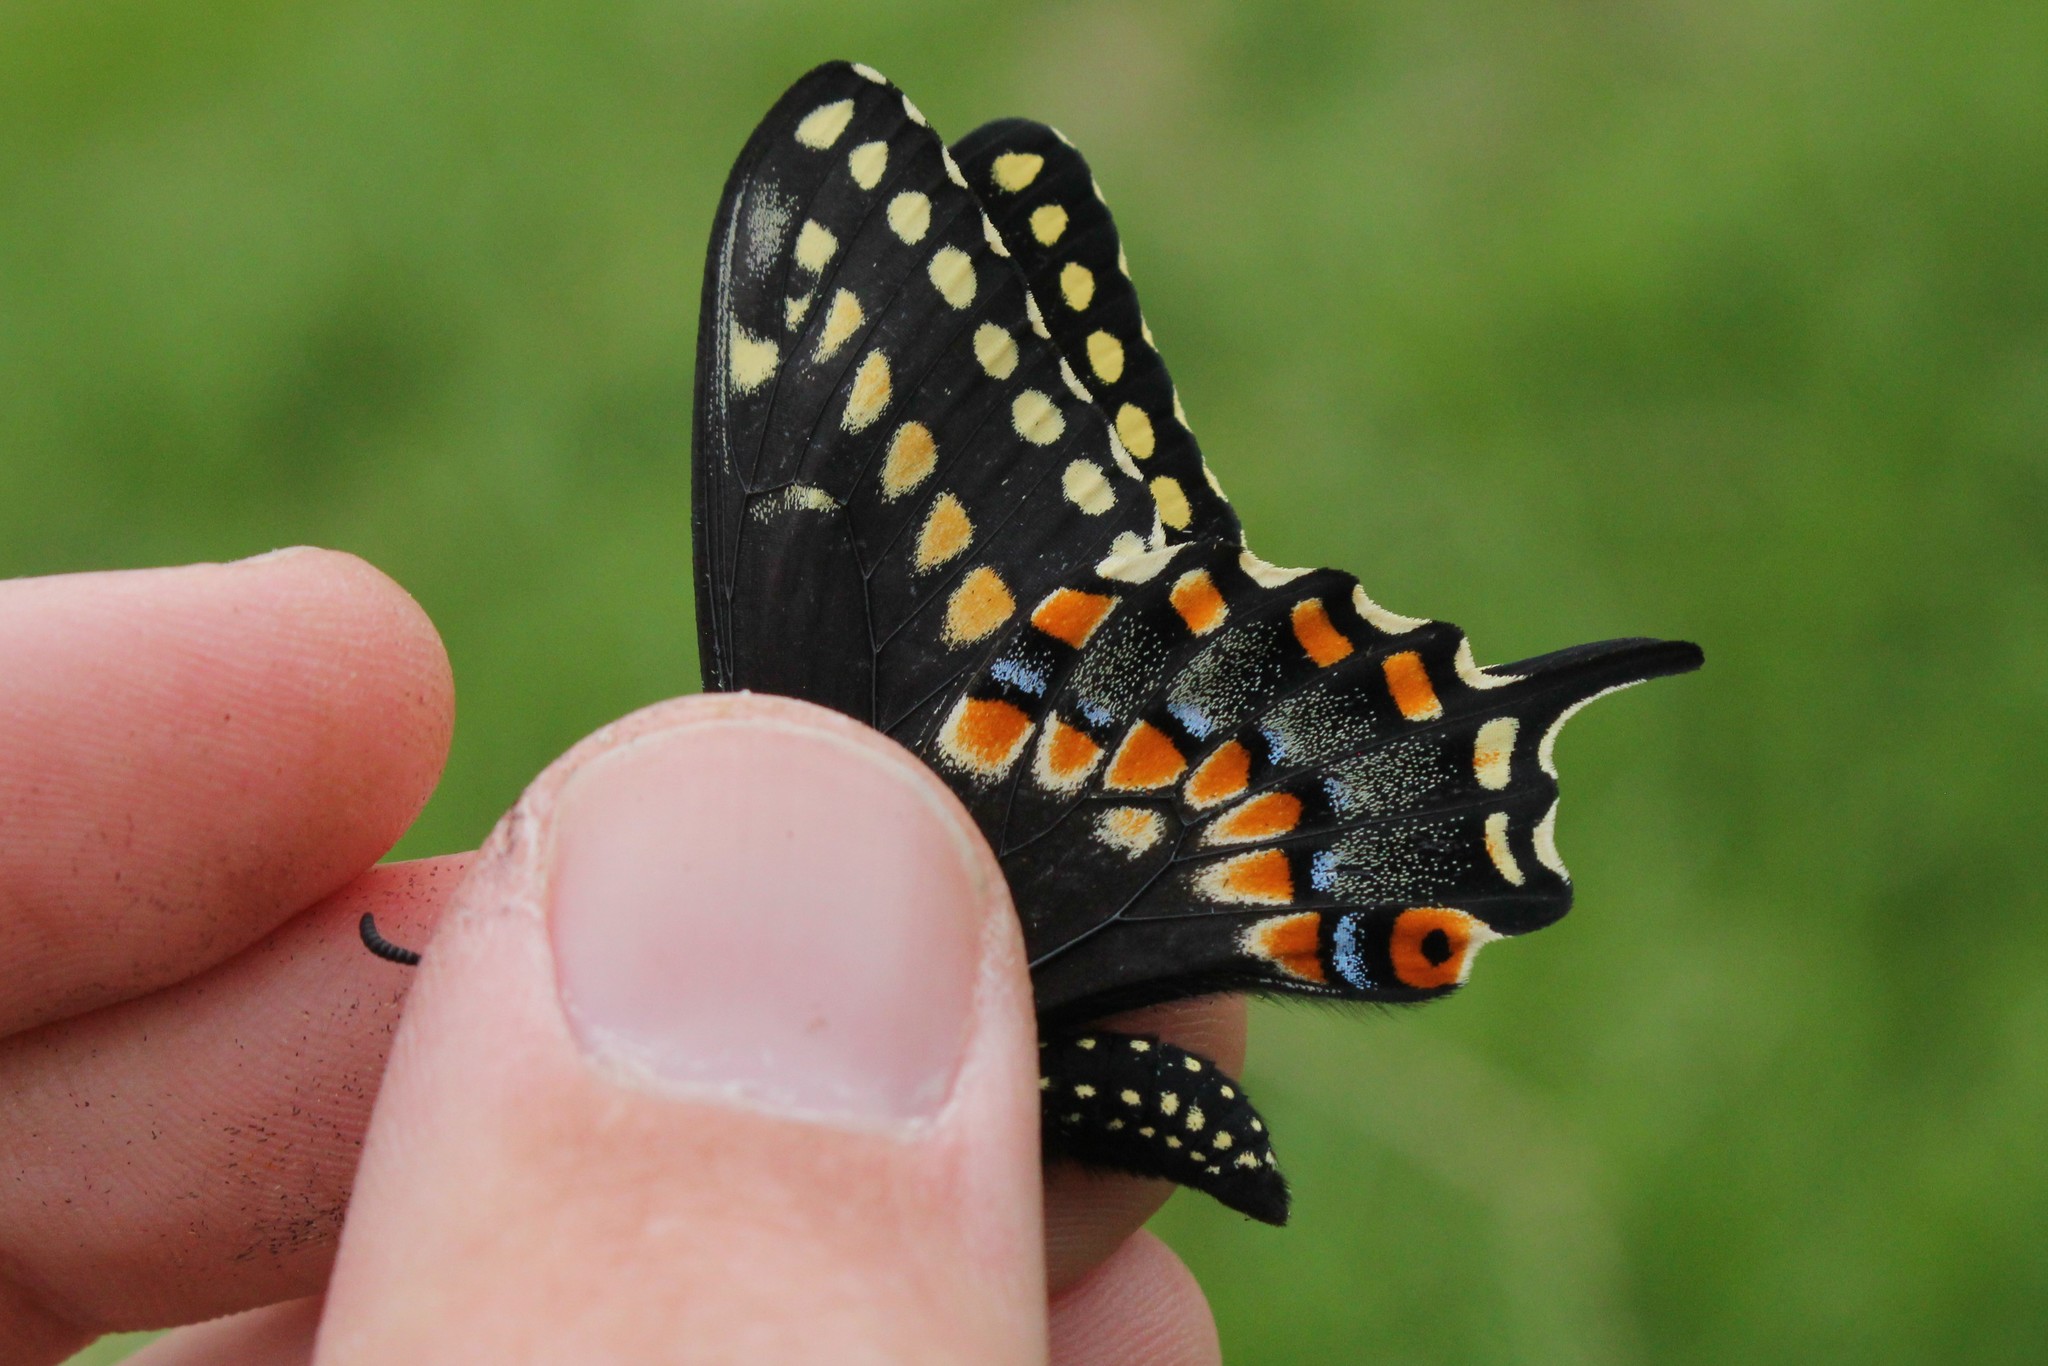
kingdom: Animalia
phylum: Arthropoda
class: Insecta
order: Lepidoptera
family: Papilionidae
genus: Papilio
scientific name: Papilio polyxenes
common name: Black swallowtail
